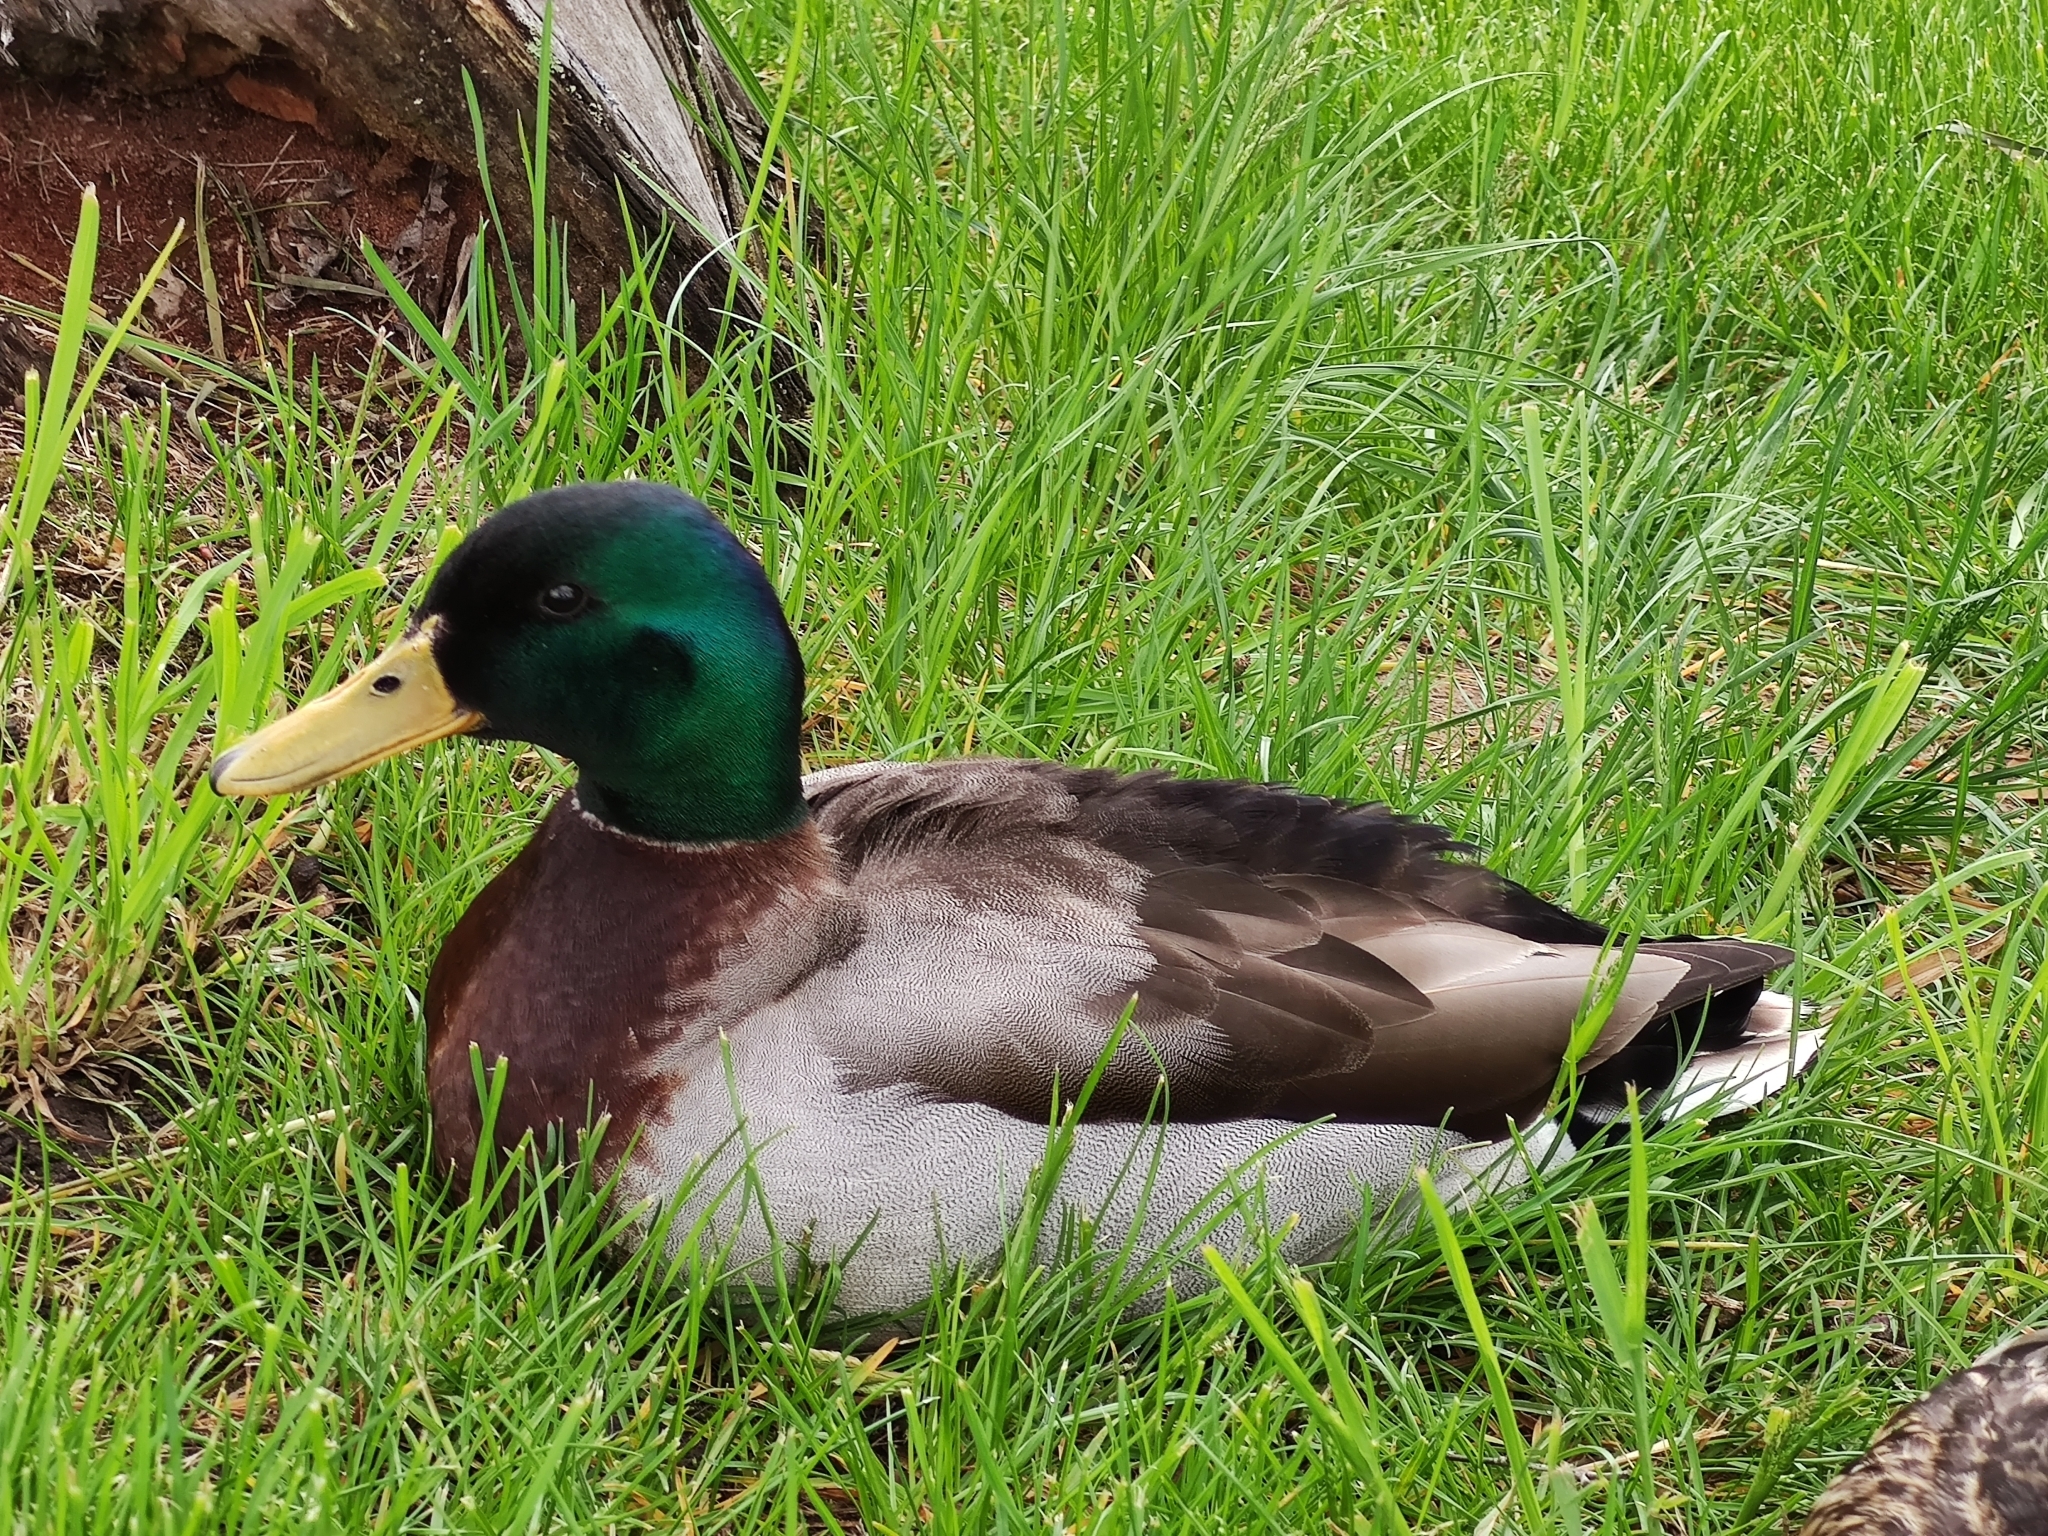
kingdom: Animalia
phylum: Chordata
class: Aves
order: Anseriformes
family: Anatidae
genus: Anas
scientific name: Anas platyrhynchos
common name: Mallard
